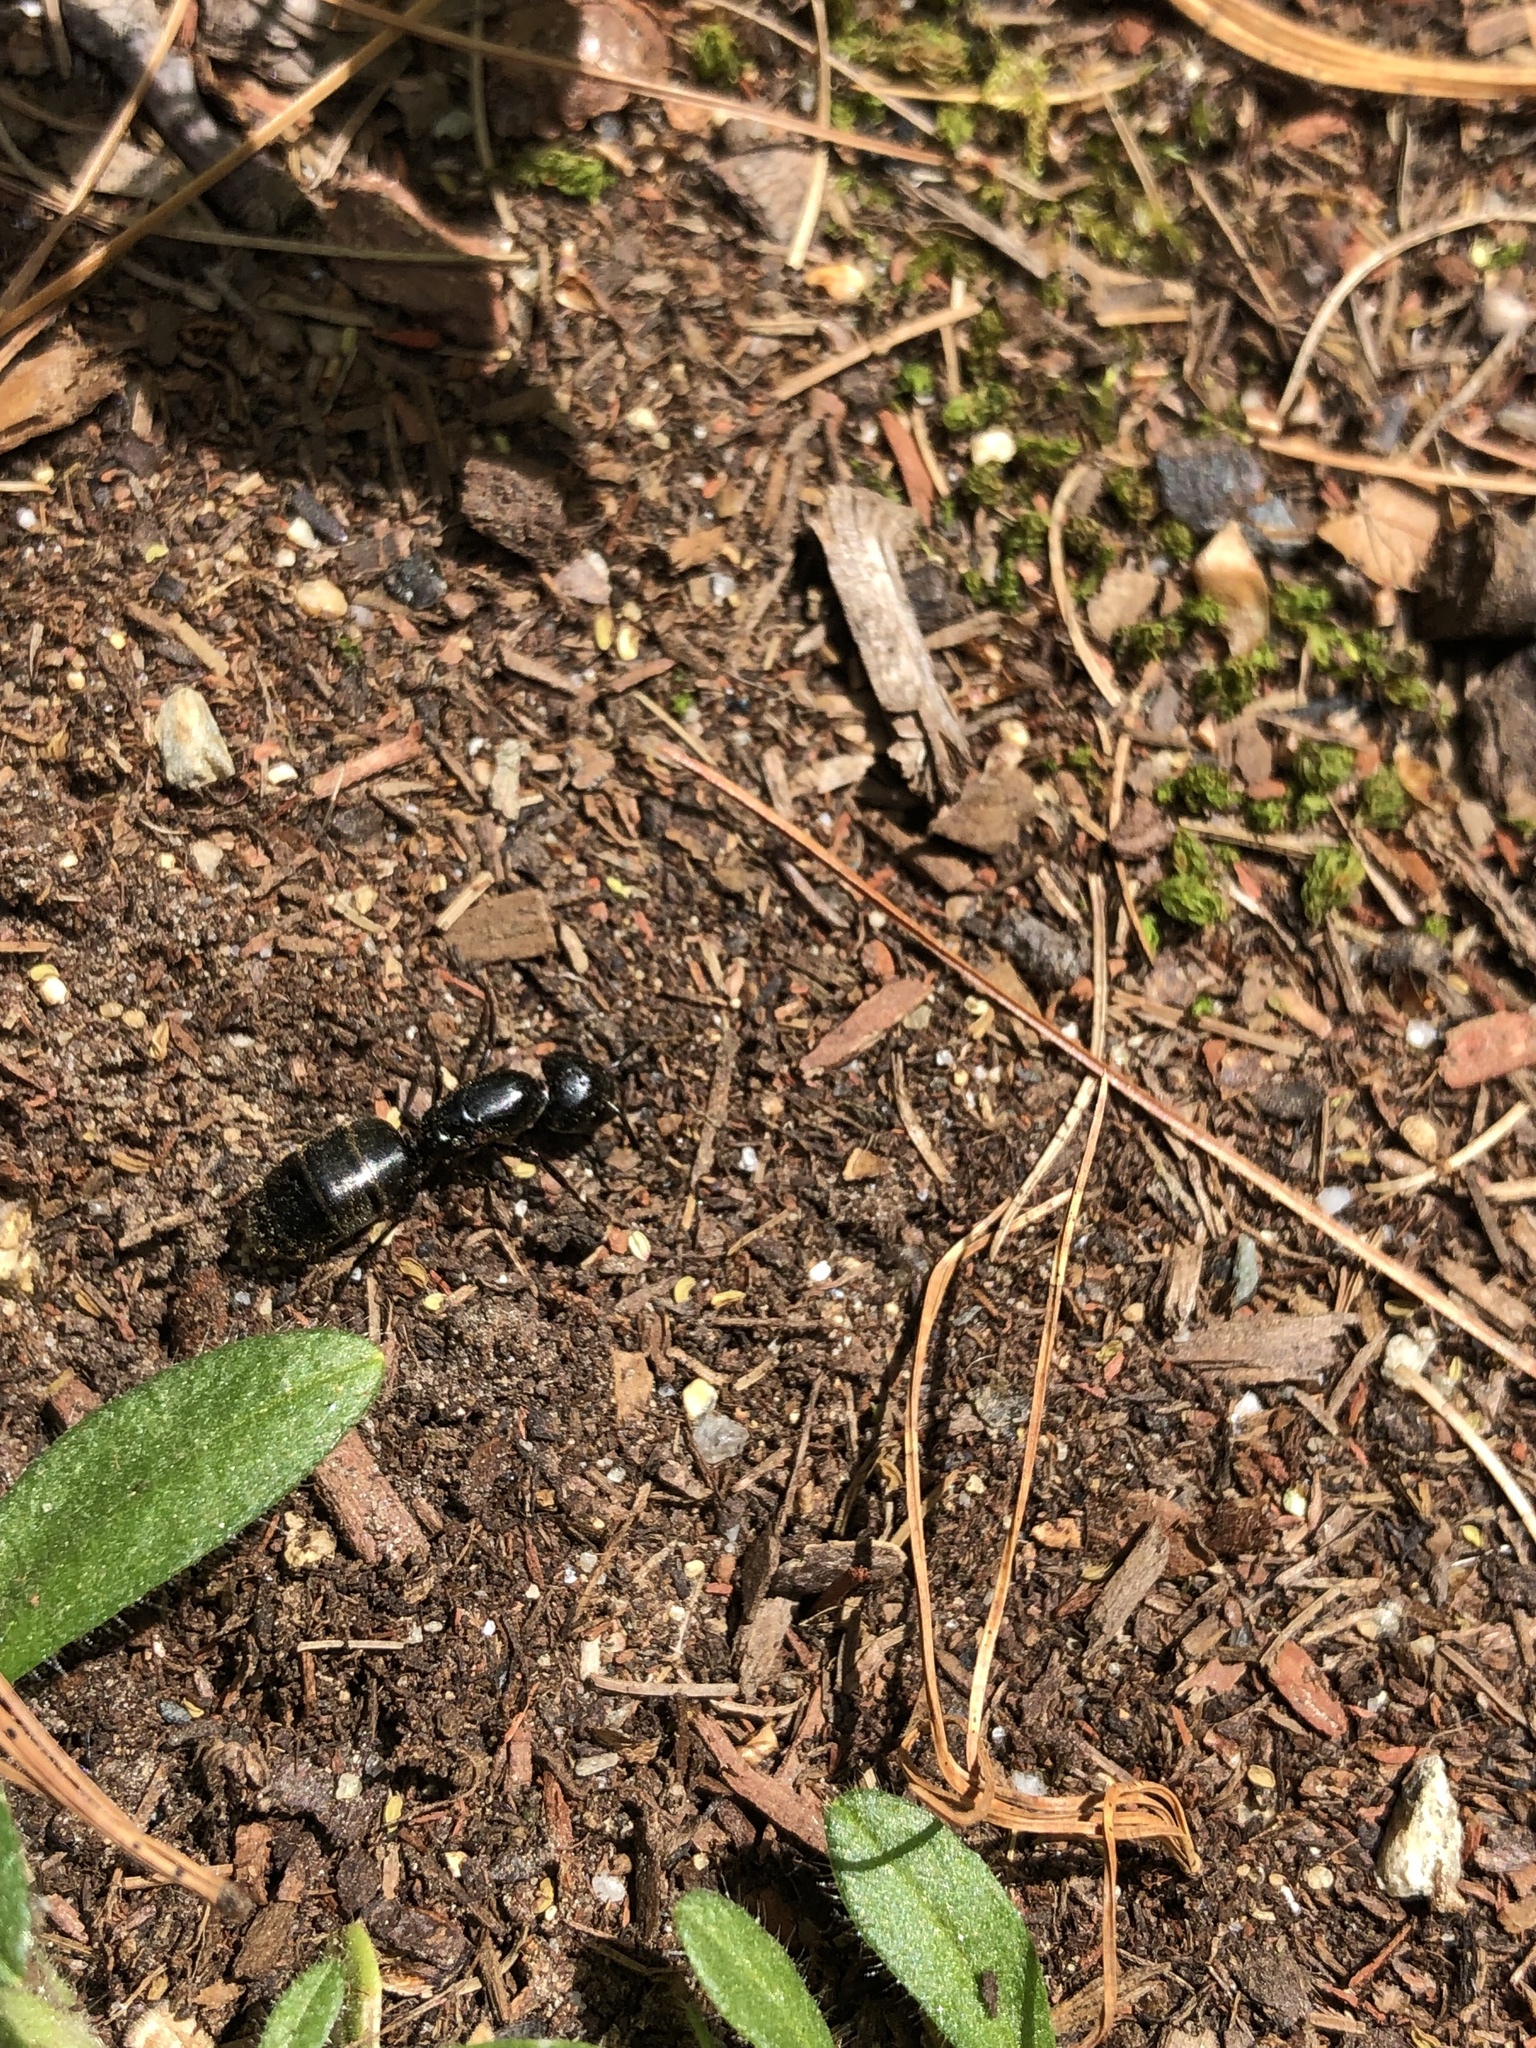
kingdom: Animalia
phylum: Arthropoda
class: Insecta
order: Hymenoptera
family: Formicidae
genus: Camponotus
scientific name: Camponotus pennsylvanicus
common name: Black carpenter ant
